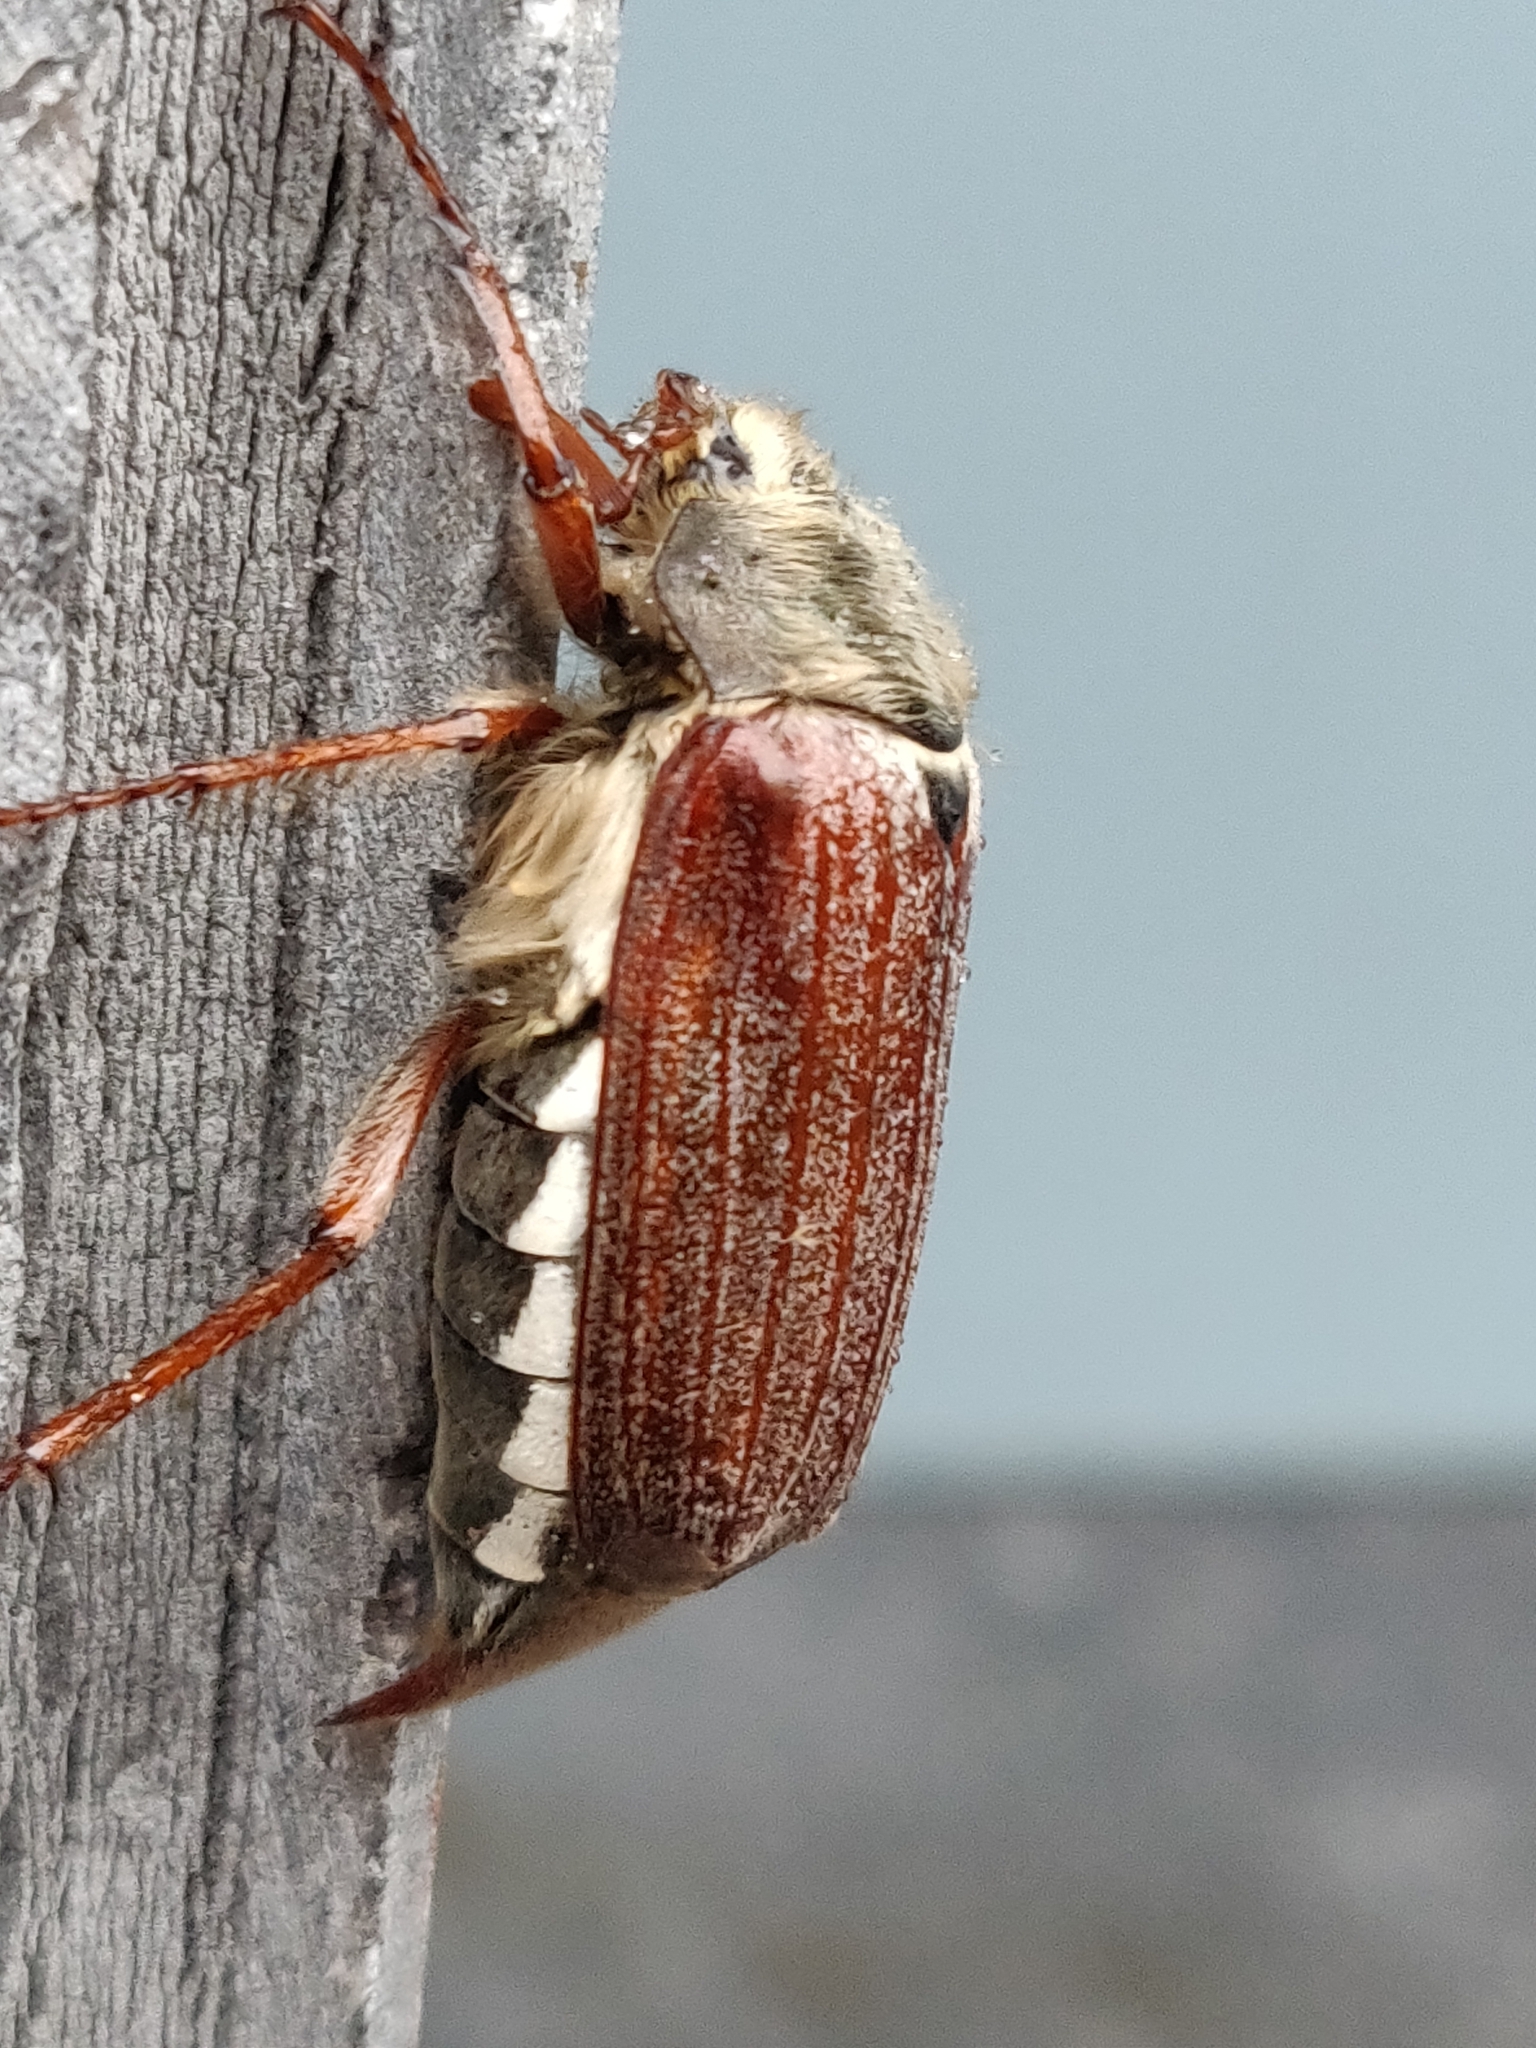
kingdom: Animalia
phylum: Arthropoda
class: Insecta
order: Coleoptera
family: Scarabaeidae
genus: Melolontha
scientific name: Melolontha melolontha
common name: Cockchafer maybeetle
